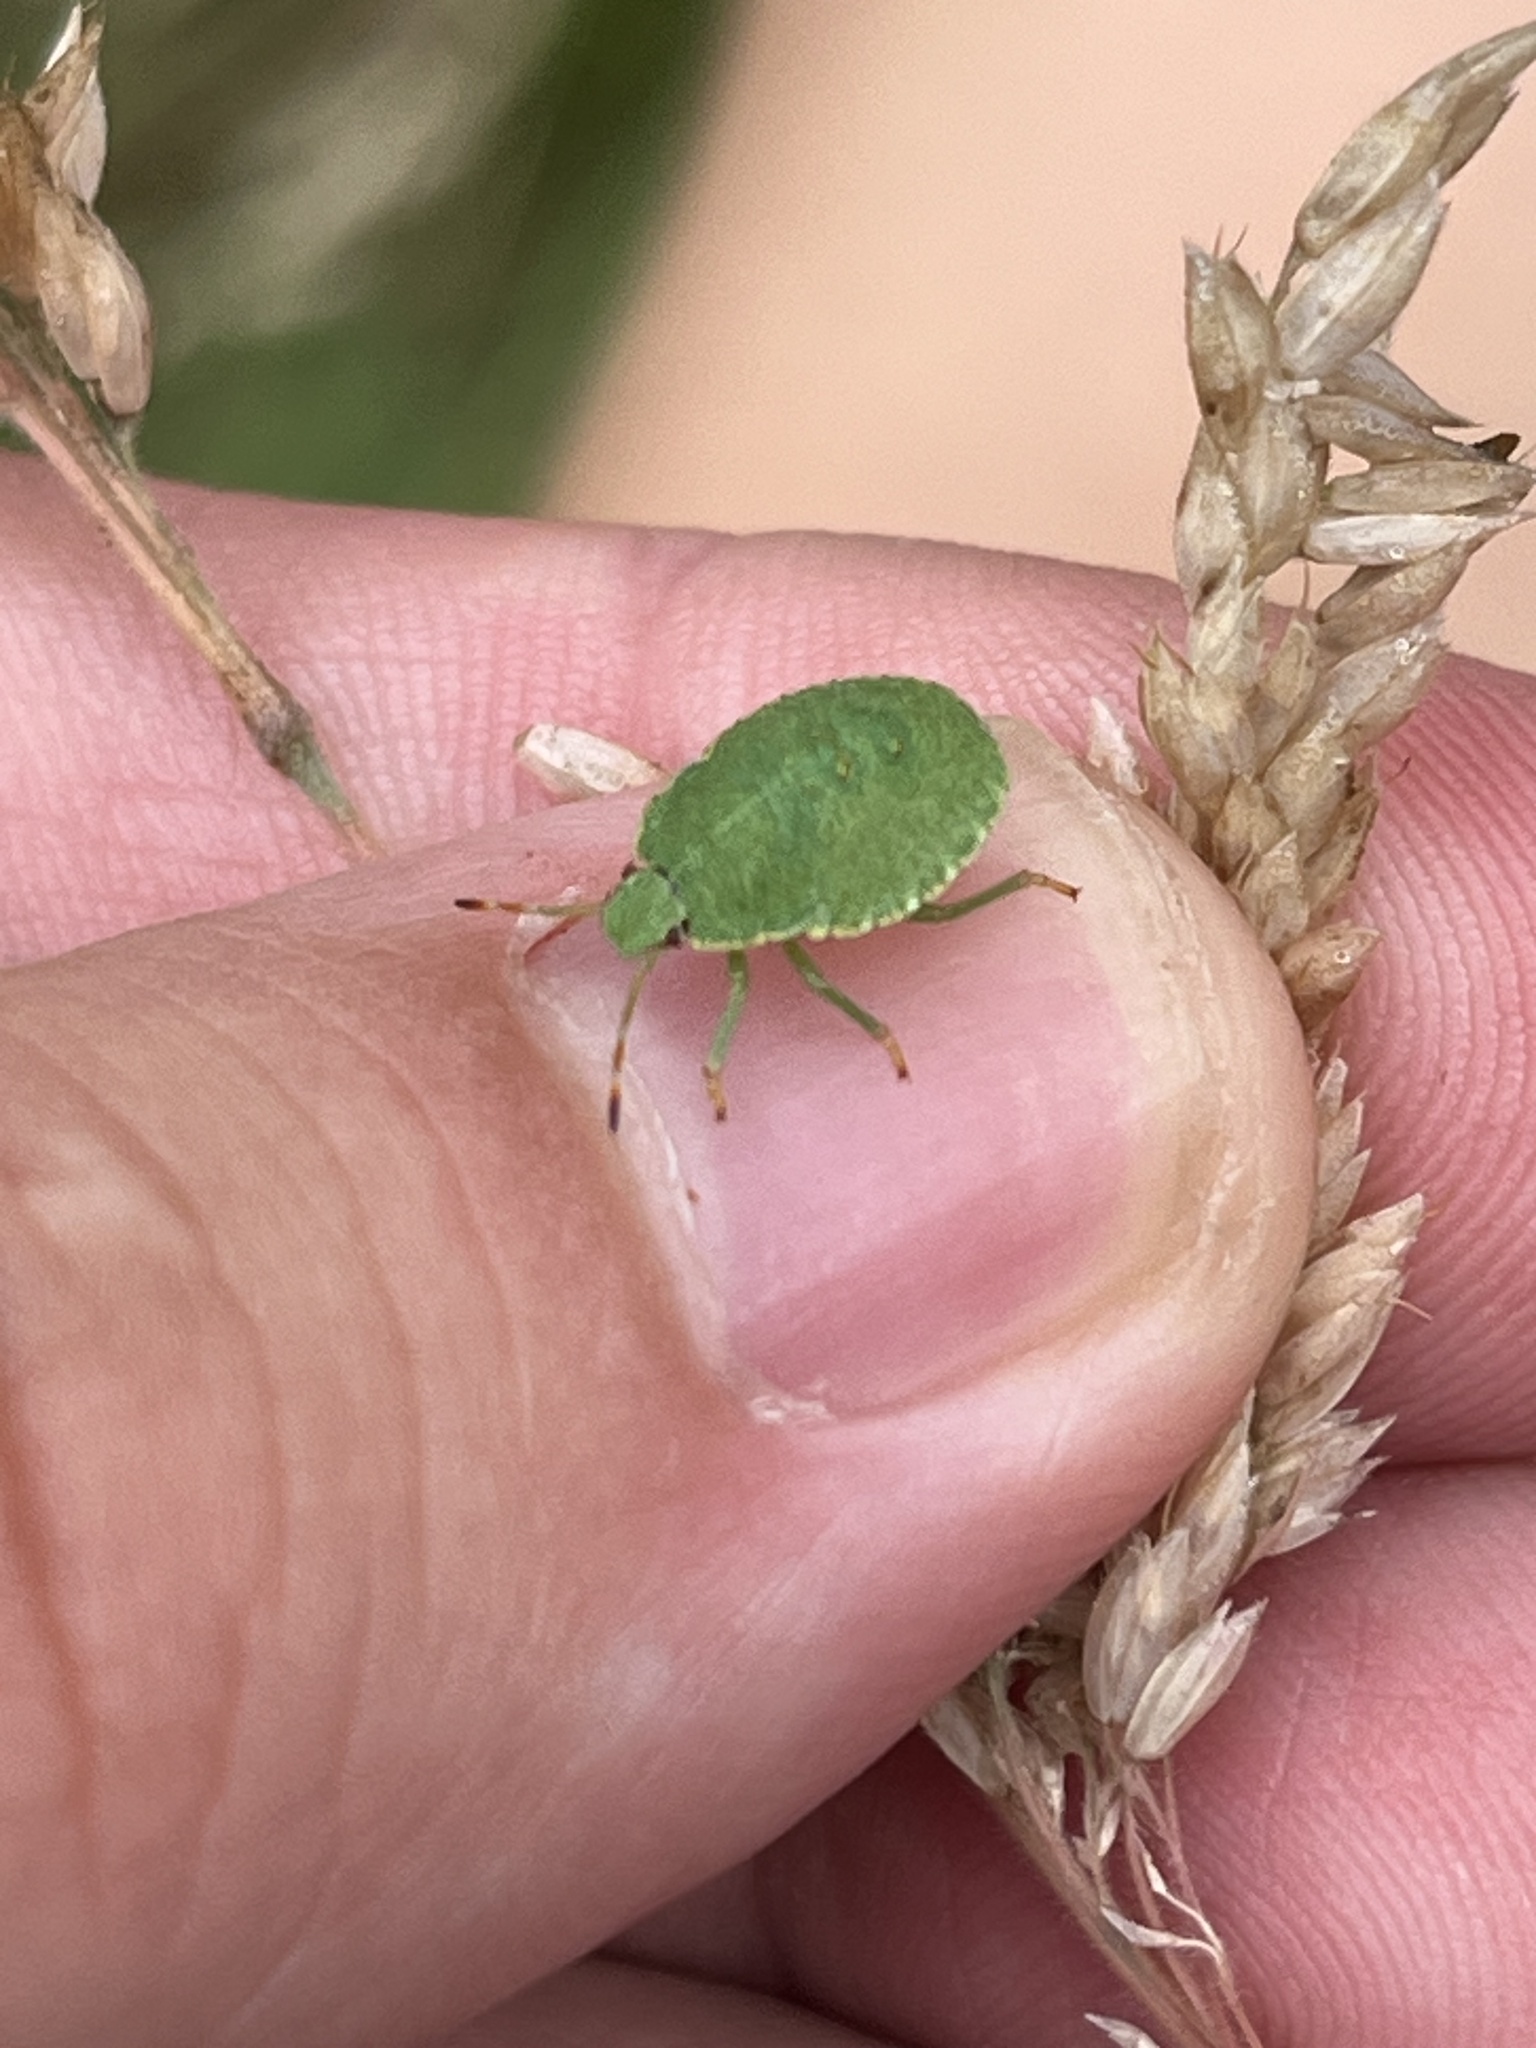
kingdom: Animalia
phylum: Arthropoda
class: Insecta
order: Hemiptera
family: Pentatomidae
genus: Palomena
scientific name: Palomena prasina
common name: Green shieldbug
